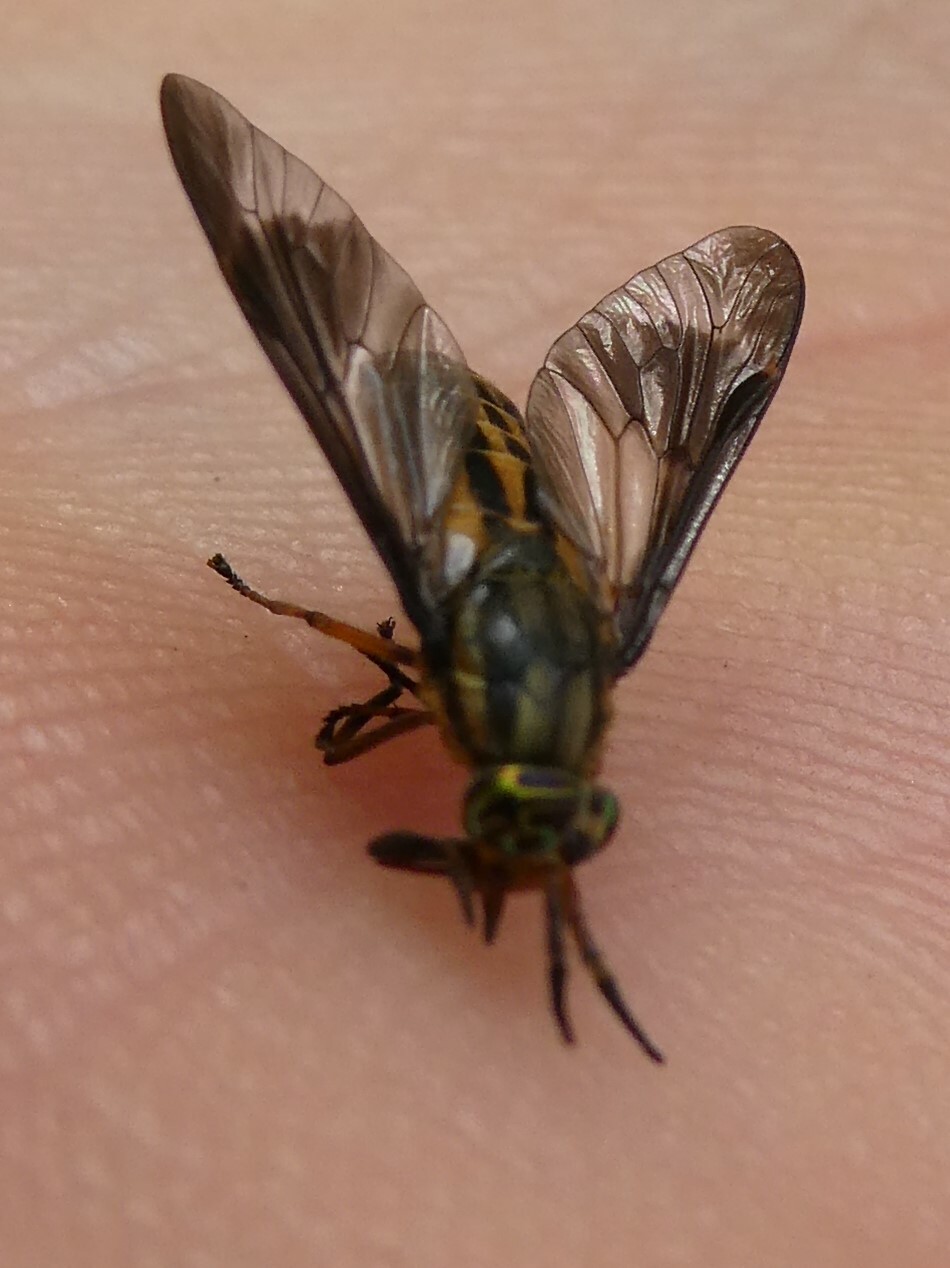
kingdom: Animalia
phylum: Arthropoda
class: Insecta
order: Diptera
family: Tabanidae
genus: Chrysops
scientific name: Chrysops aberrans
